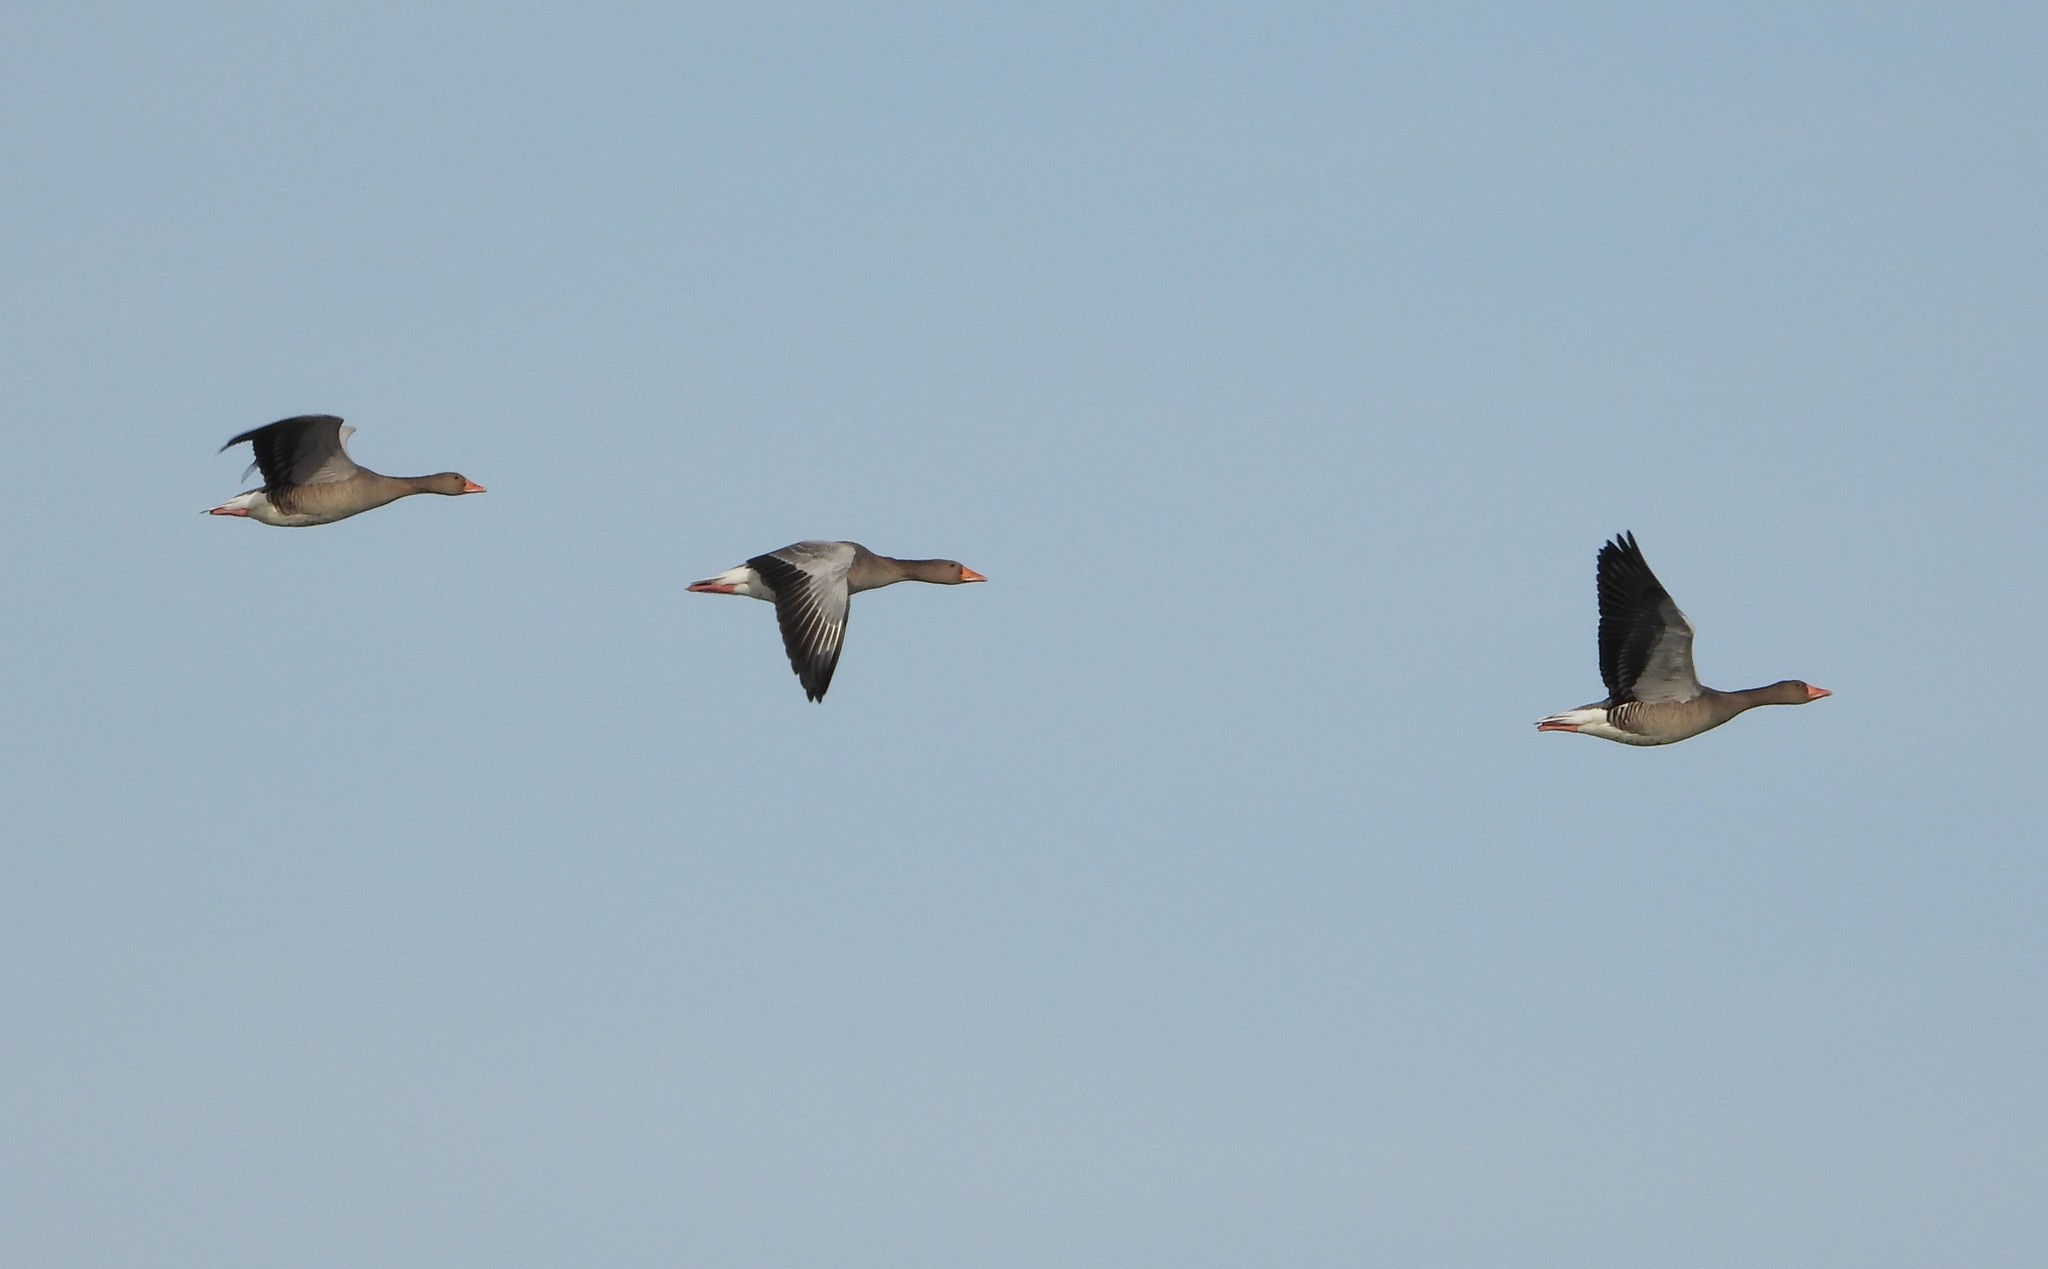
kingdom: Animalia
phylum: Chordata
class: Aves
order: Anseriformes
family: Anatidae
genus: Anser
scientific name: Anser anser
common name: Greylag goose
